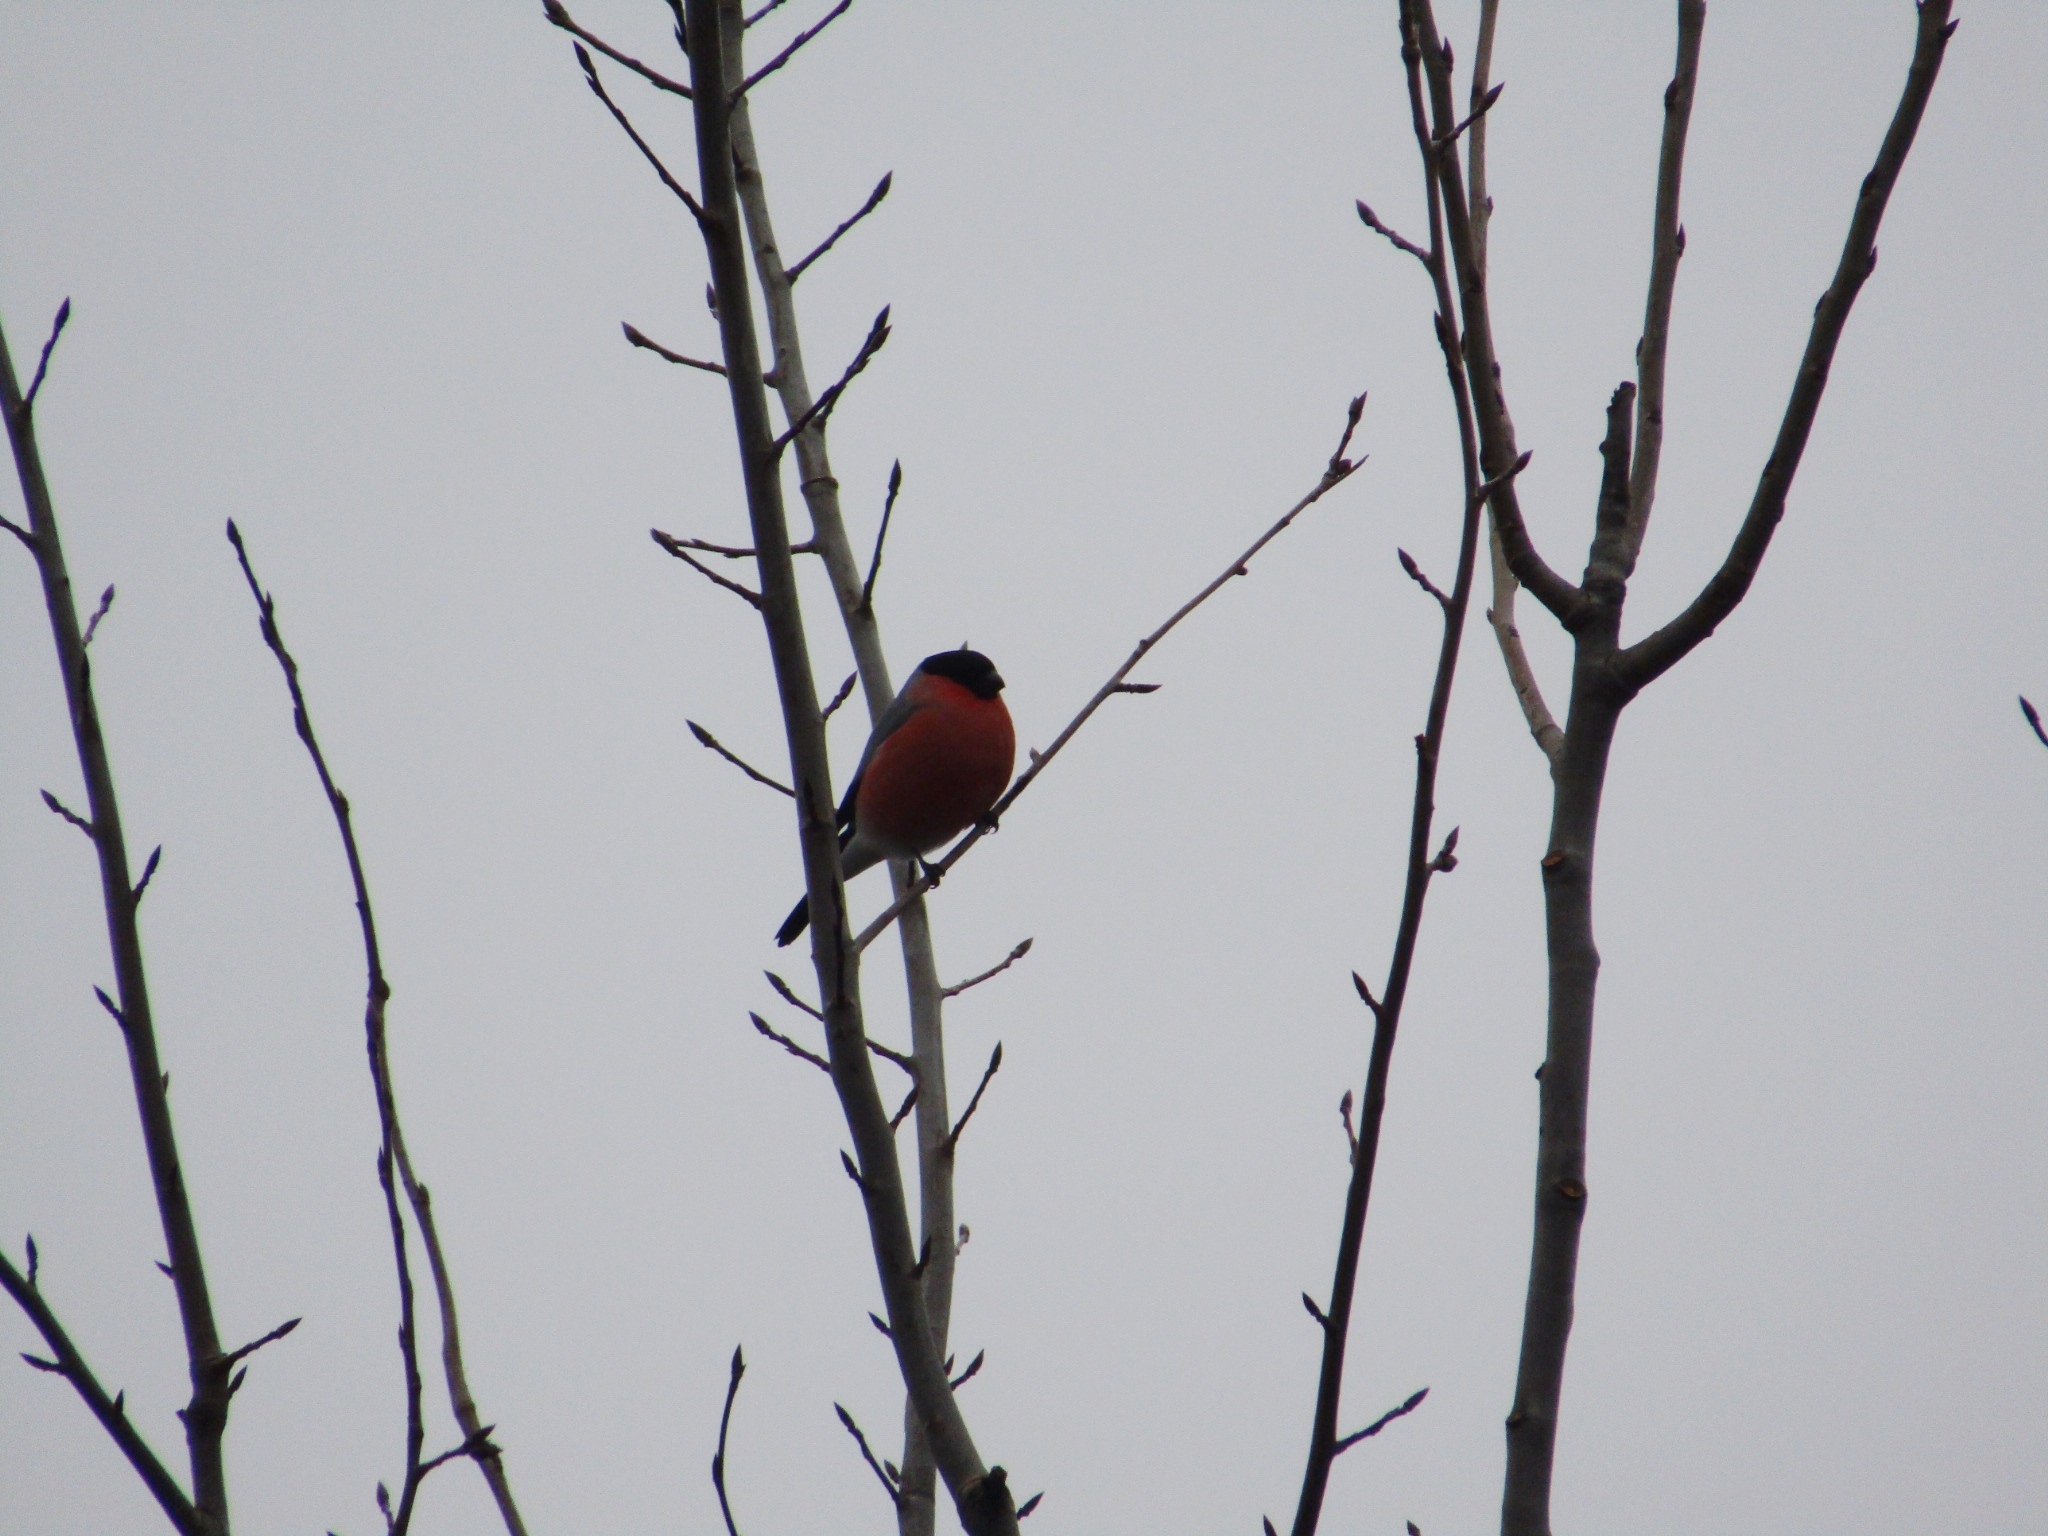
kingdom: Animalia
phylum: Chordata
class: Aves
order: Passeriformes
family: Fringillidae
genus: Pyrrhula
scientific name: Pyrrhula pyrrhula
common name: Eurasian bullfinch
